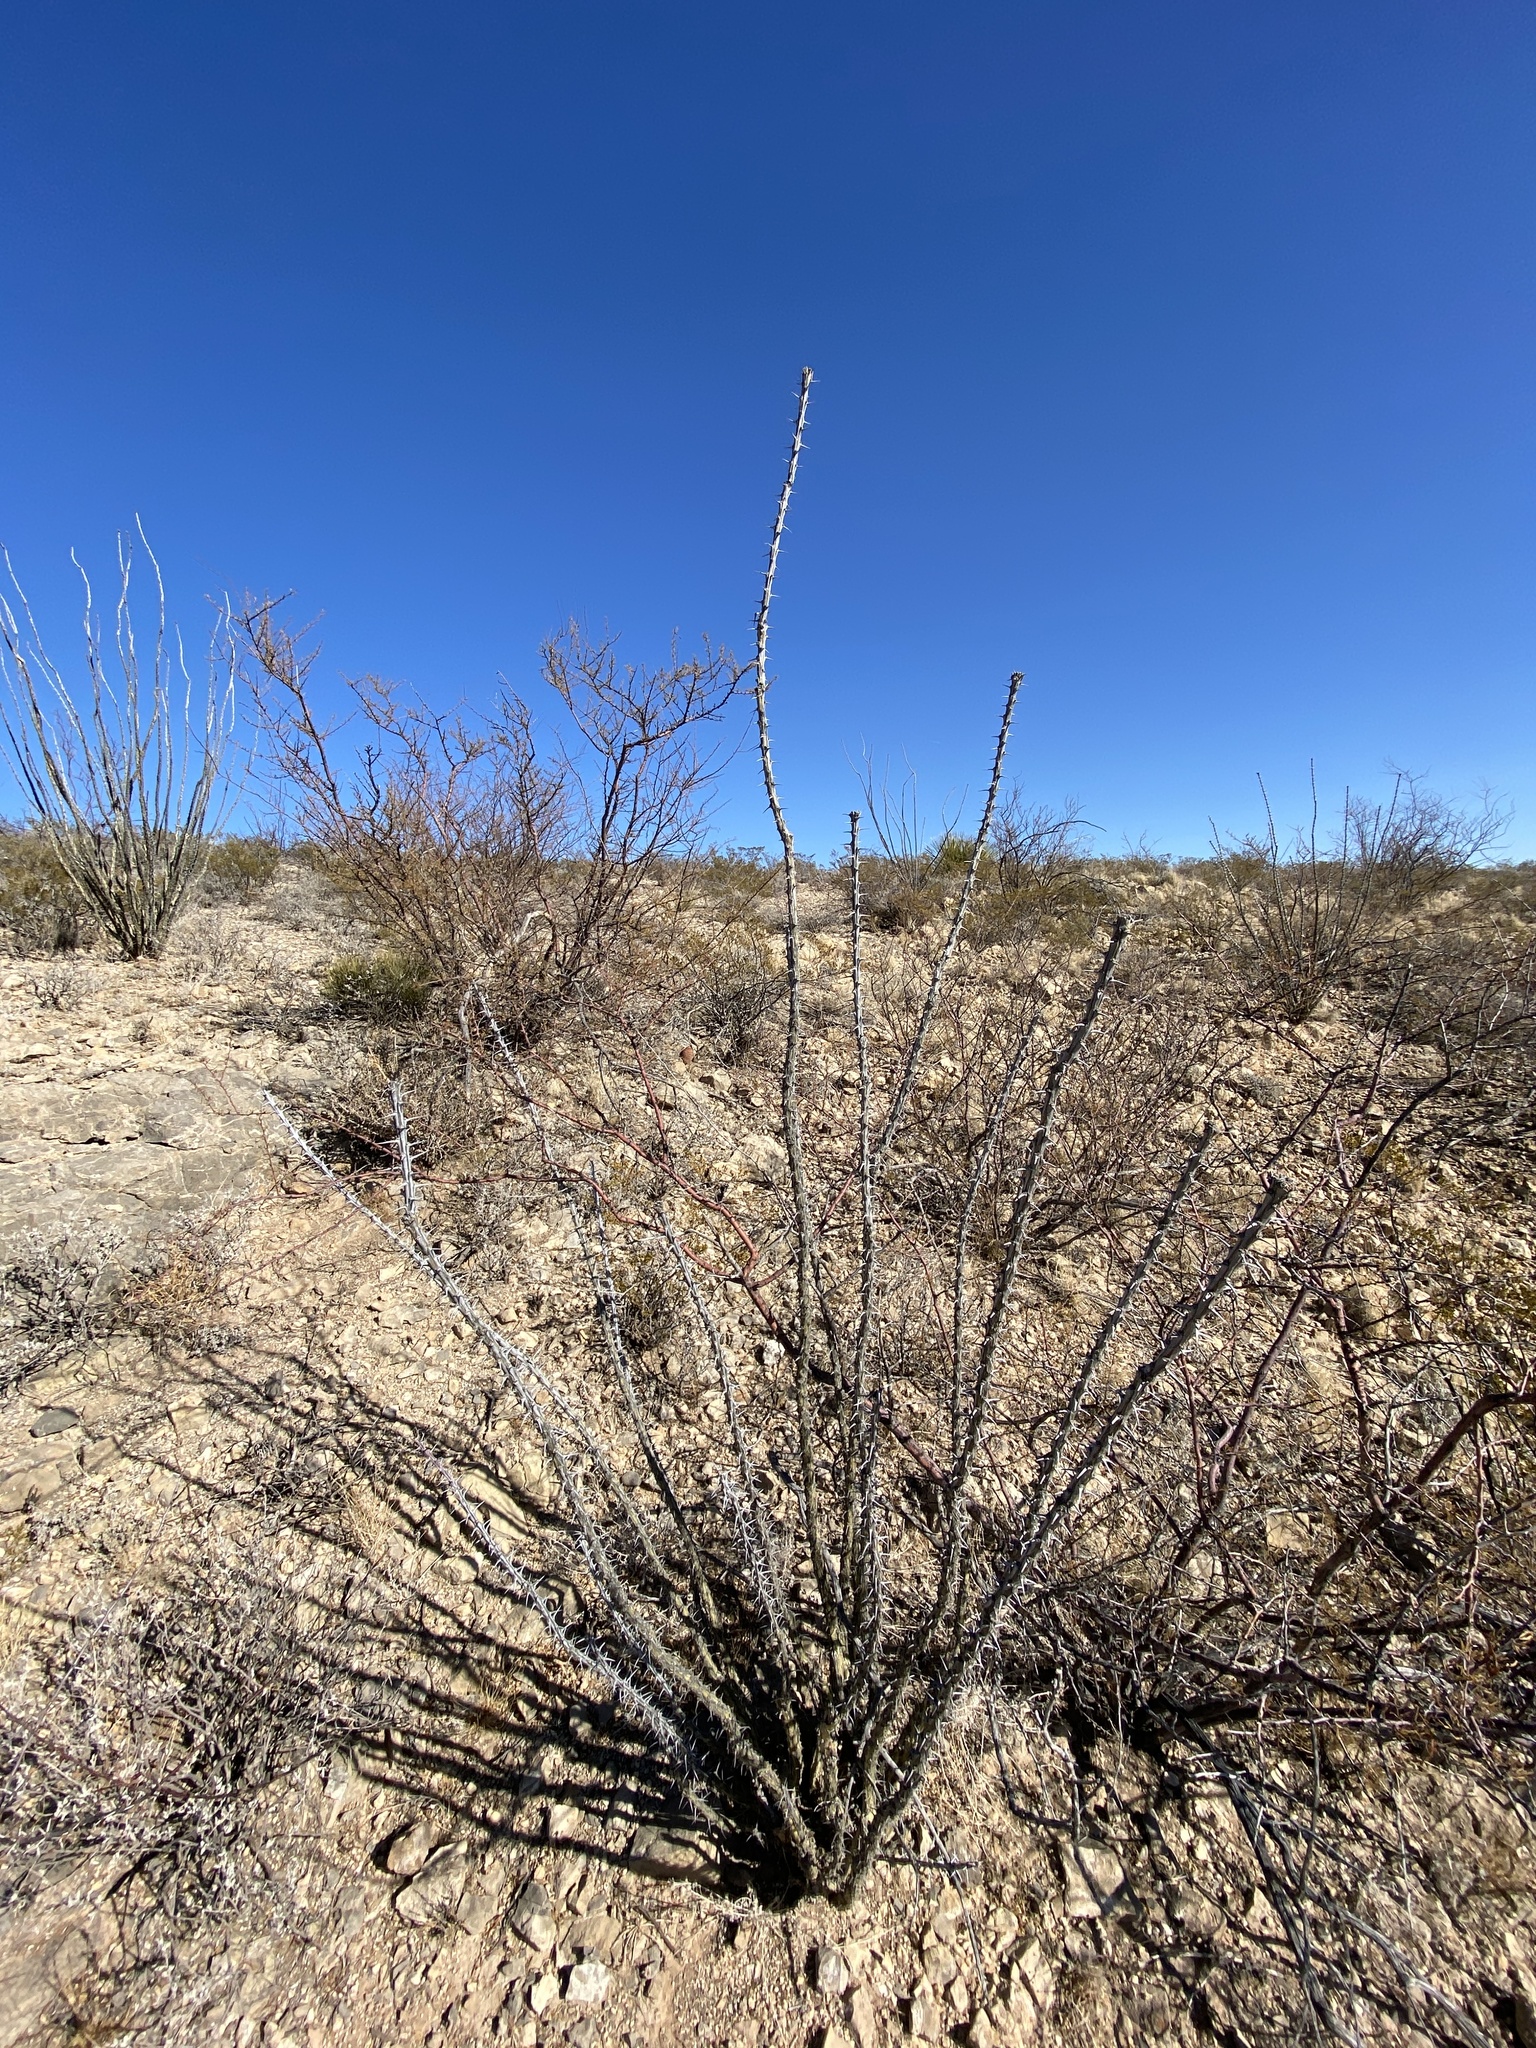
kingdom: Plantae
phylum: Tracheophyta
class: Magnoliopsida
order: Ericales
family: Fouquieriaceae
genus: Fouquieria
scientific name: Fouquieria splendens
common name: Vine-cactus
